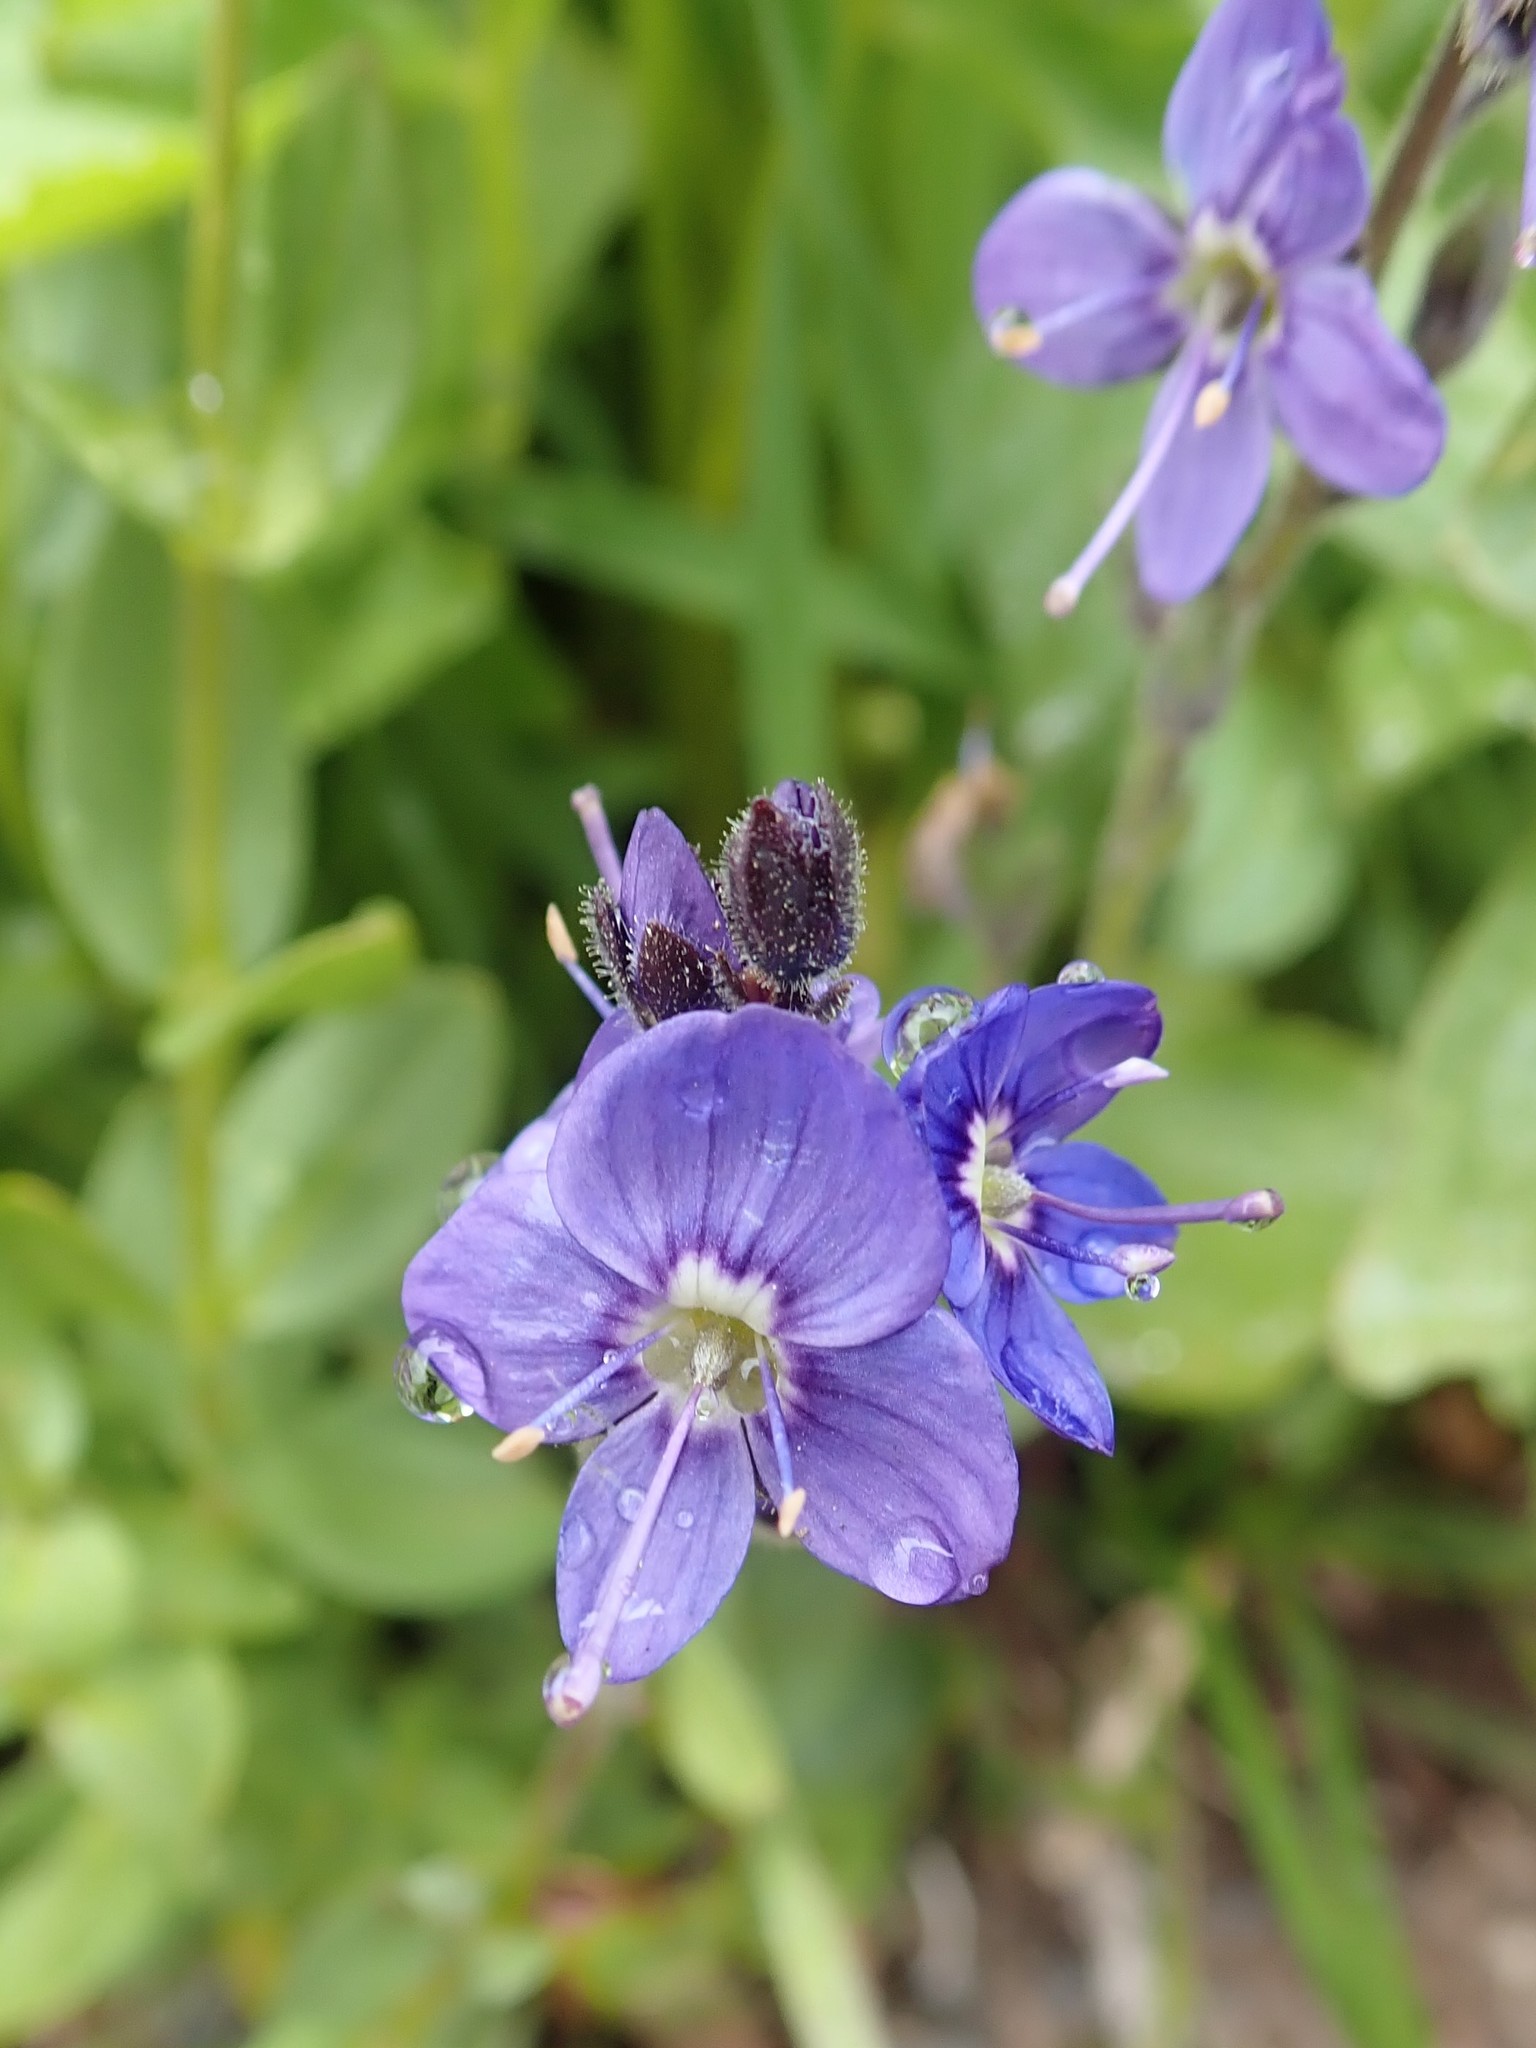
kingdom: Plantae
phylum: Tracheophyta
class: Magnoliopsida
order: Lamiales
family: Plantaginaceae
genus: Veronica
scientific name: Veronica cusickii
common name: Cusick's speedwell
